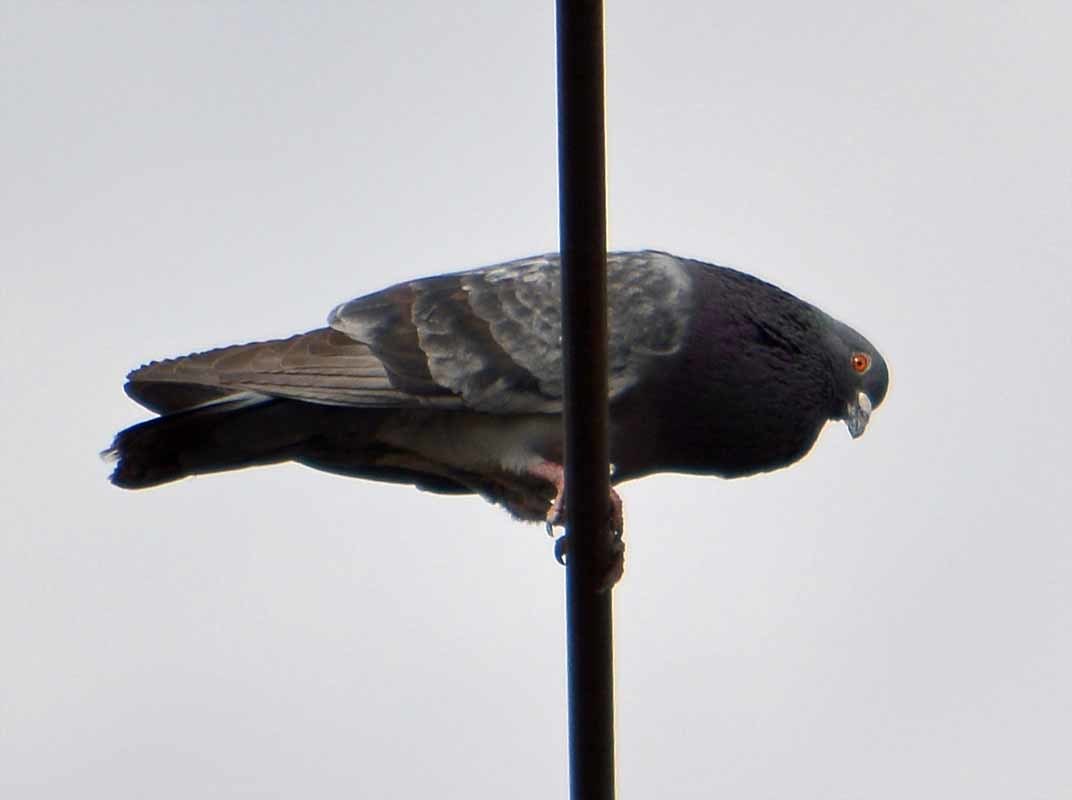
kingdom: Animalia
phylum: Chordata
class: Aves
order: Columbiformes
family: Columbidae
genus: Columba
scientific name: Columba livia
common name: Rock pigeon
